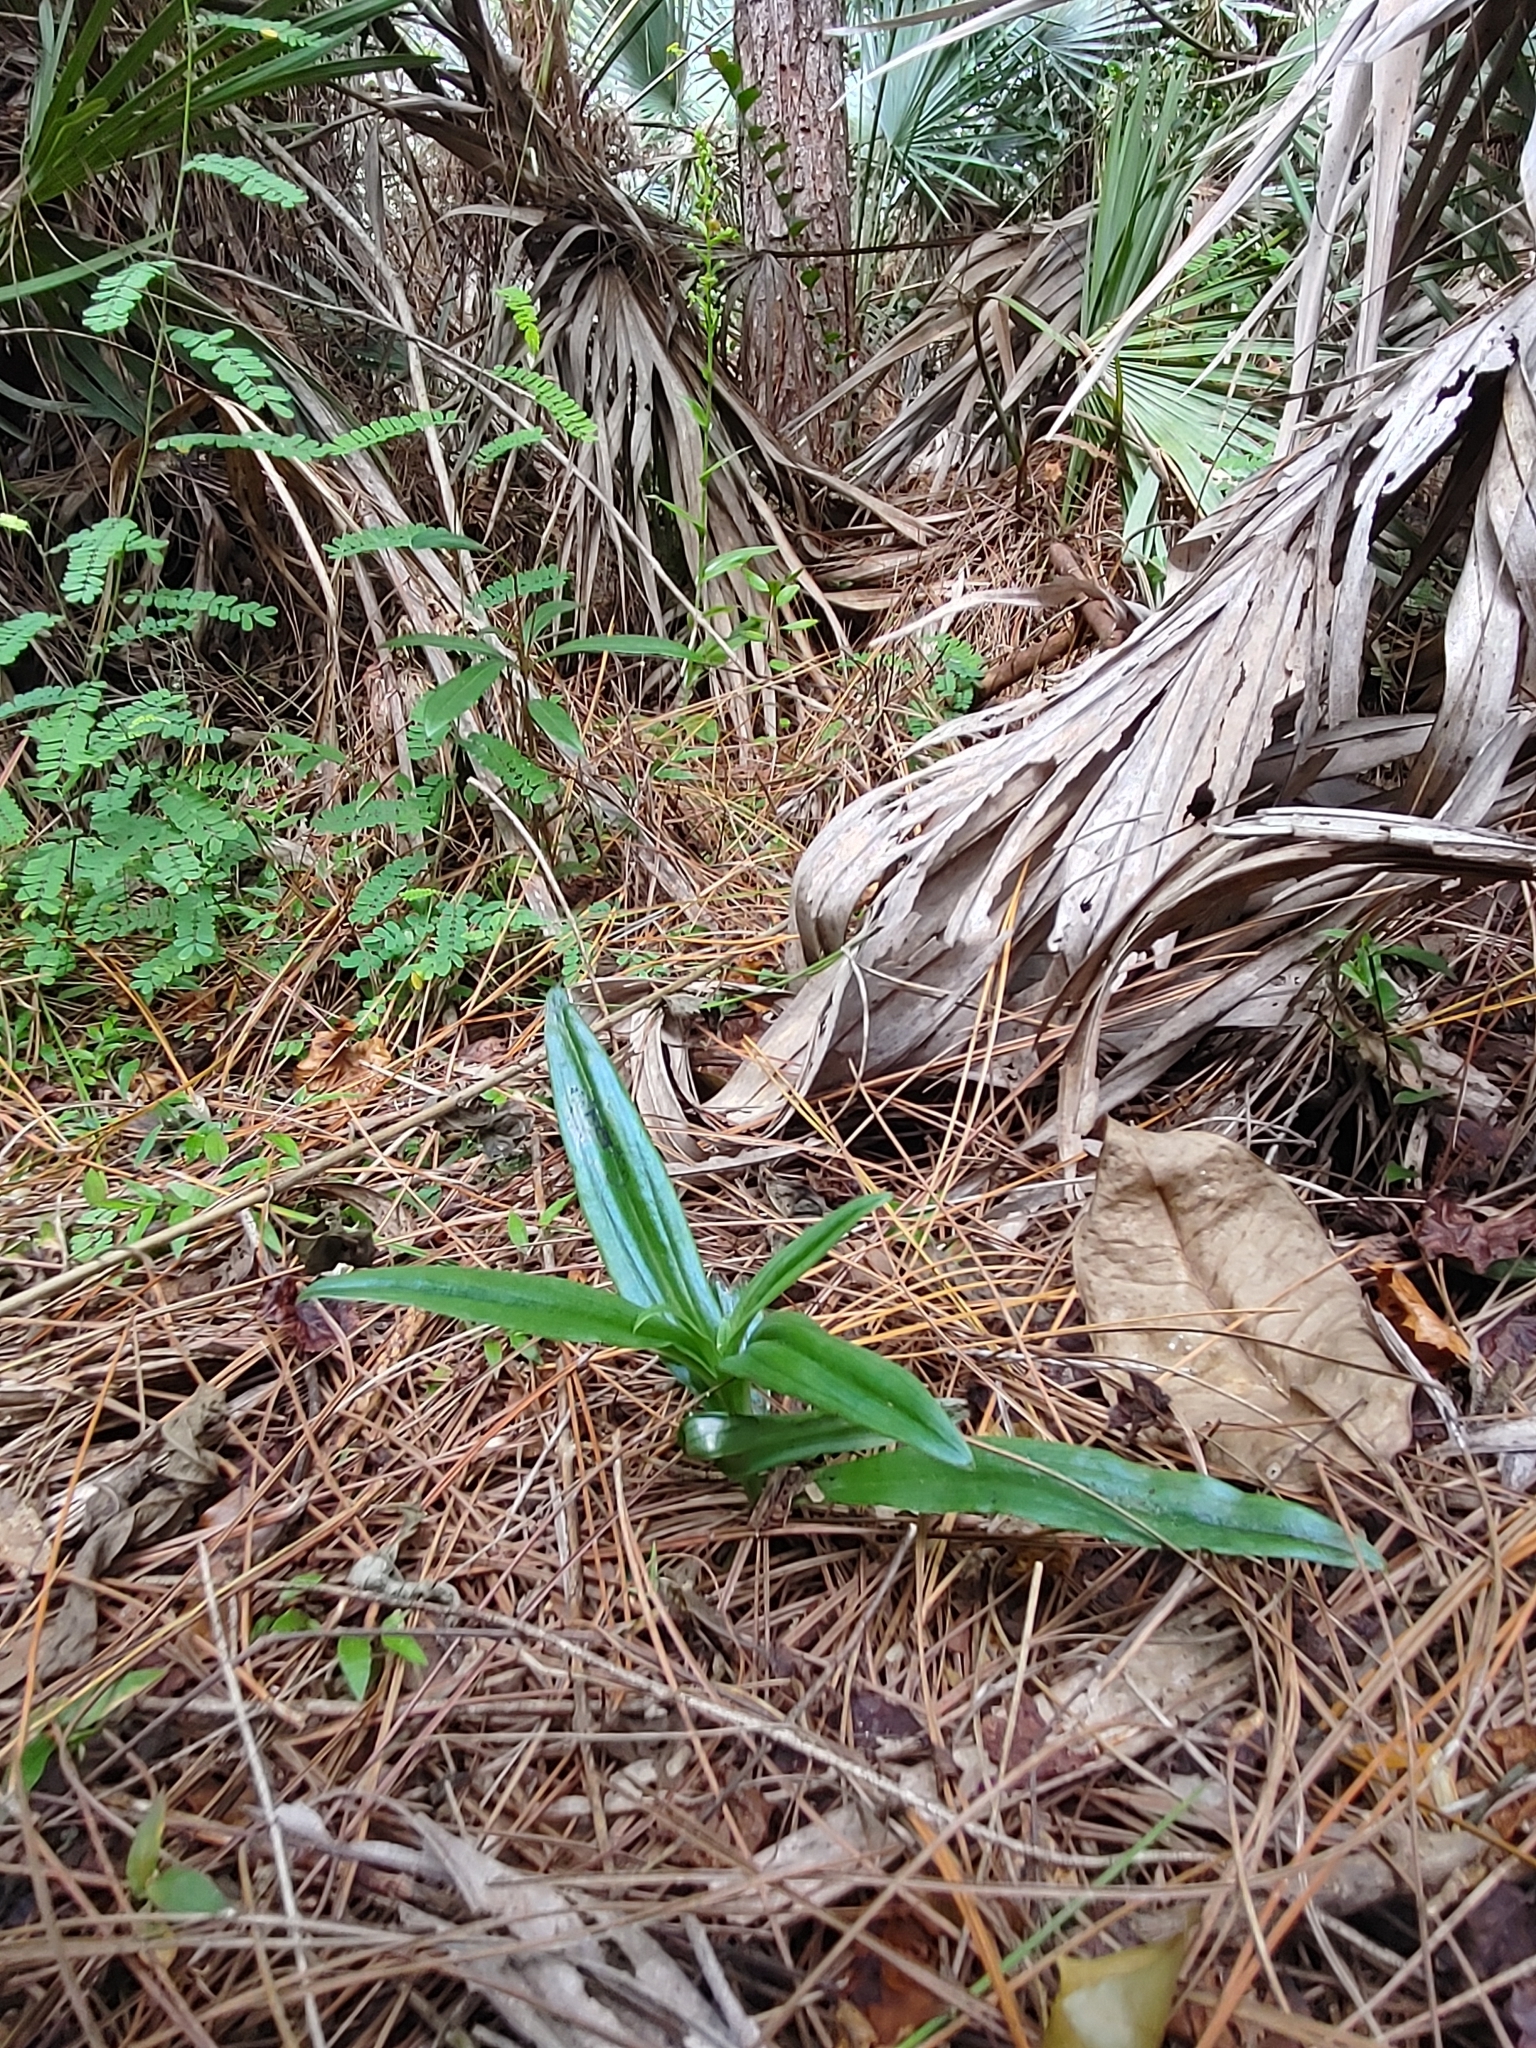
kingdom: Plantae
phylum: Tracheophyta
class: Liliopsida
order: Asparagales
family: Orchidaceae
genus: Habenaria
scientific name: Habenaria floribunda
